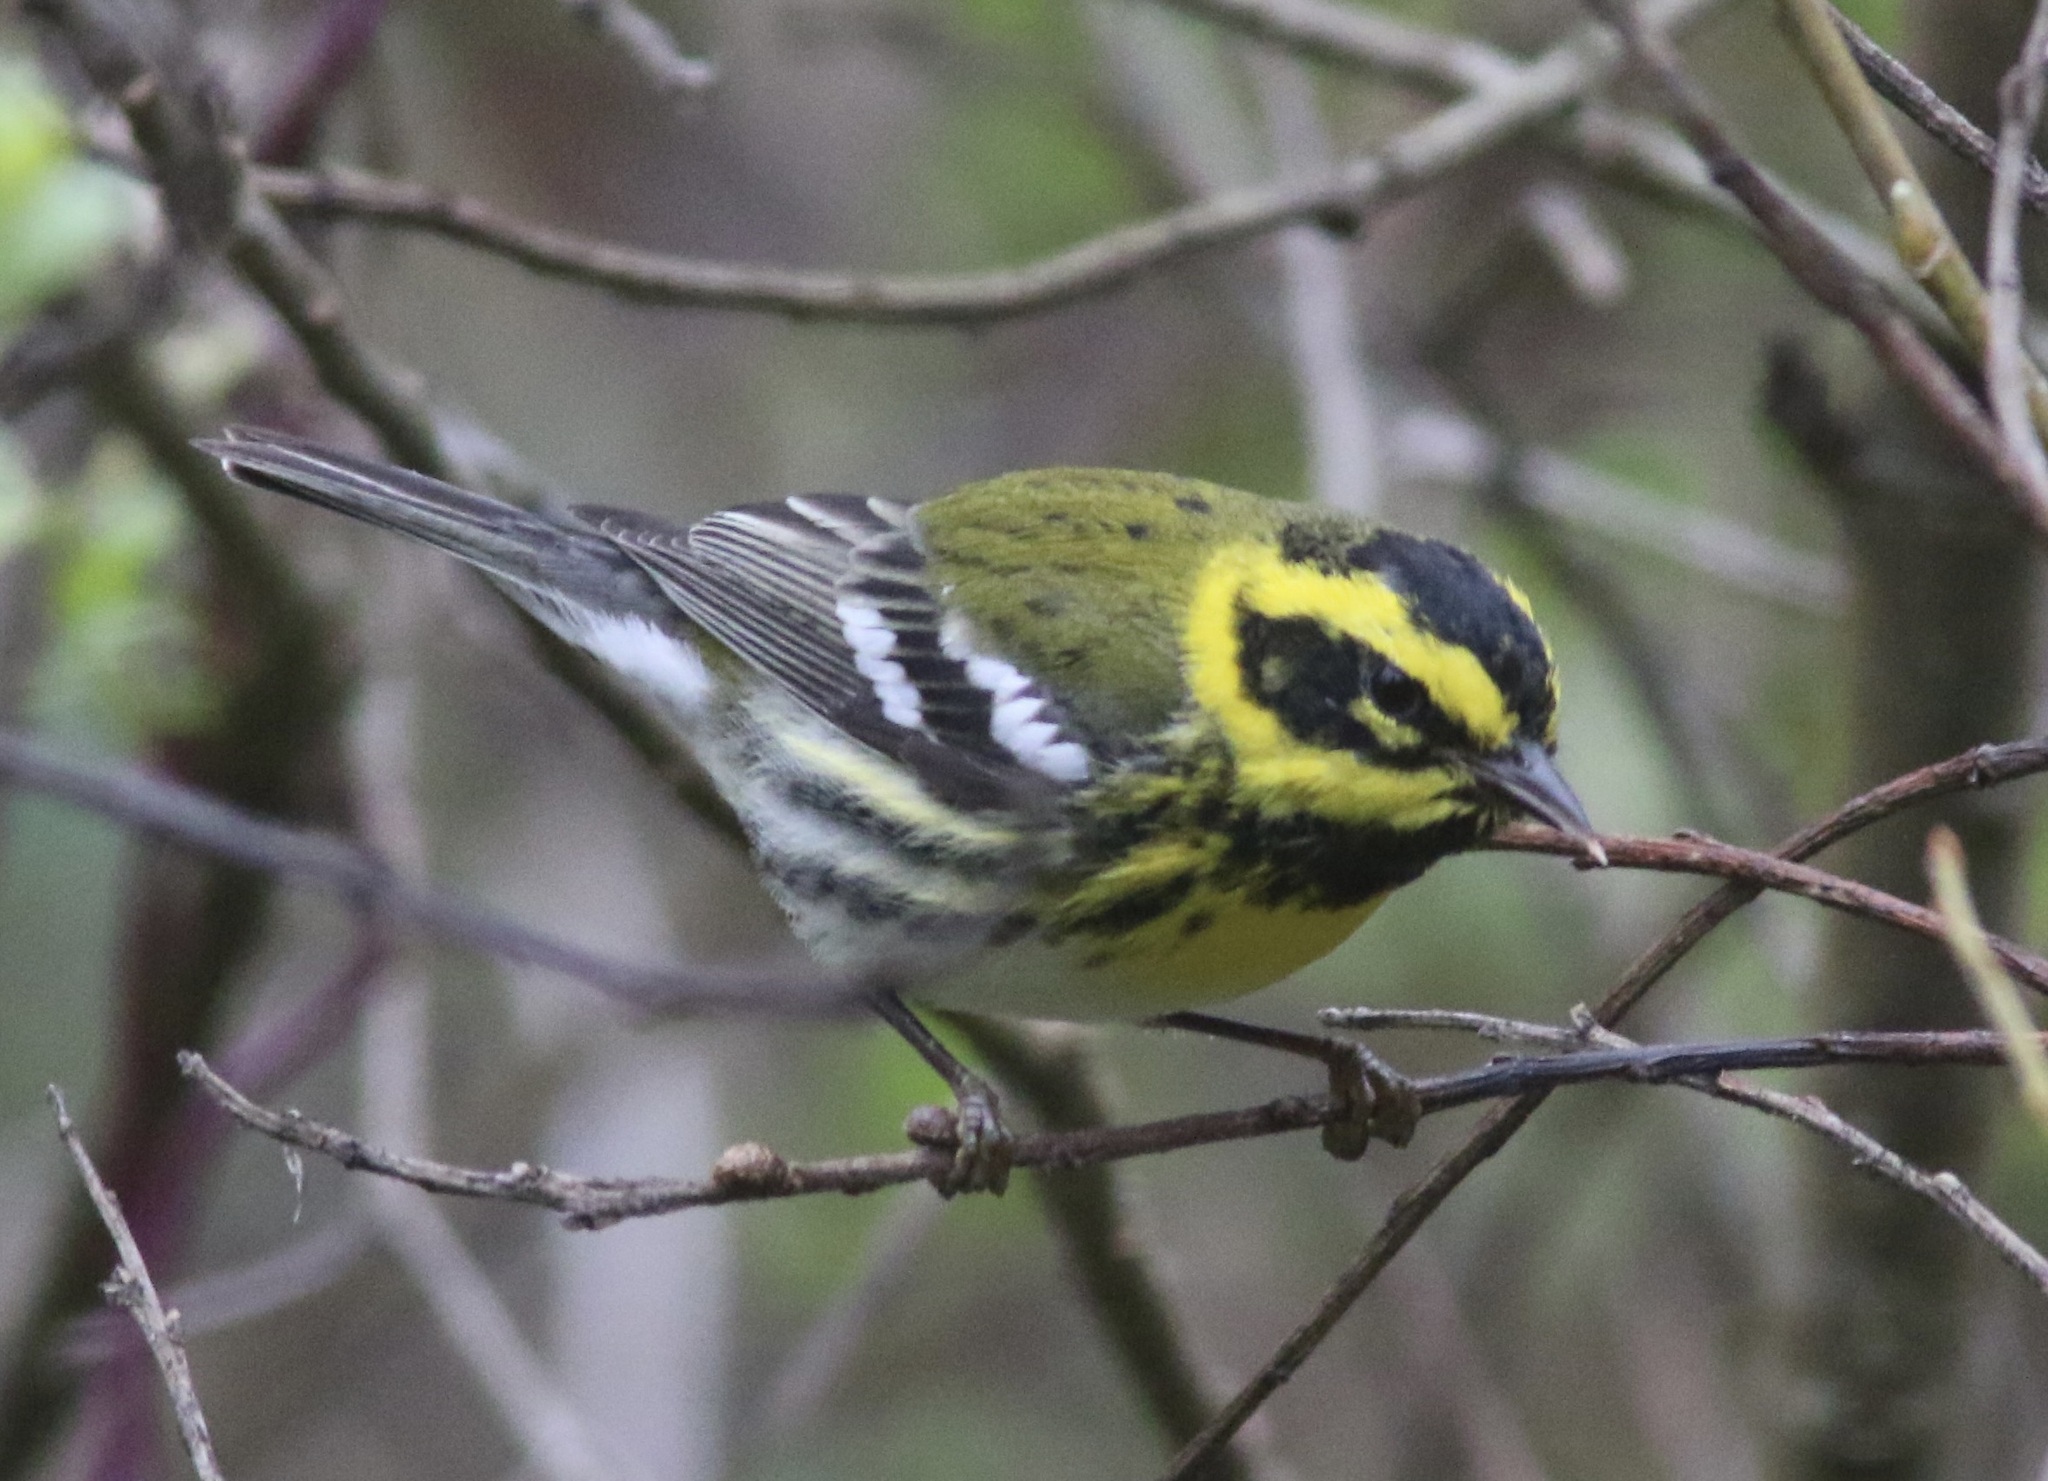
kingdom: Animalia
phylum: Chordata
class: Aves
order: Passeriformes
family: Parulidae
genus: Setophaga
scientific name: Setophaga townsendi
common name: Townsend's warbler
